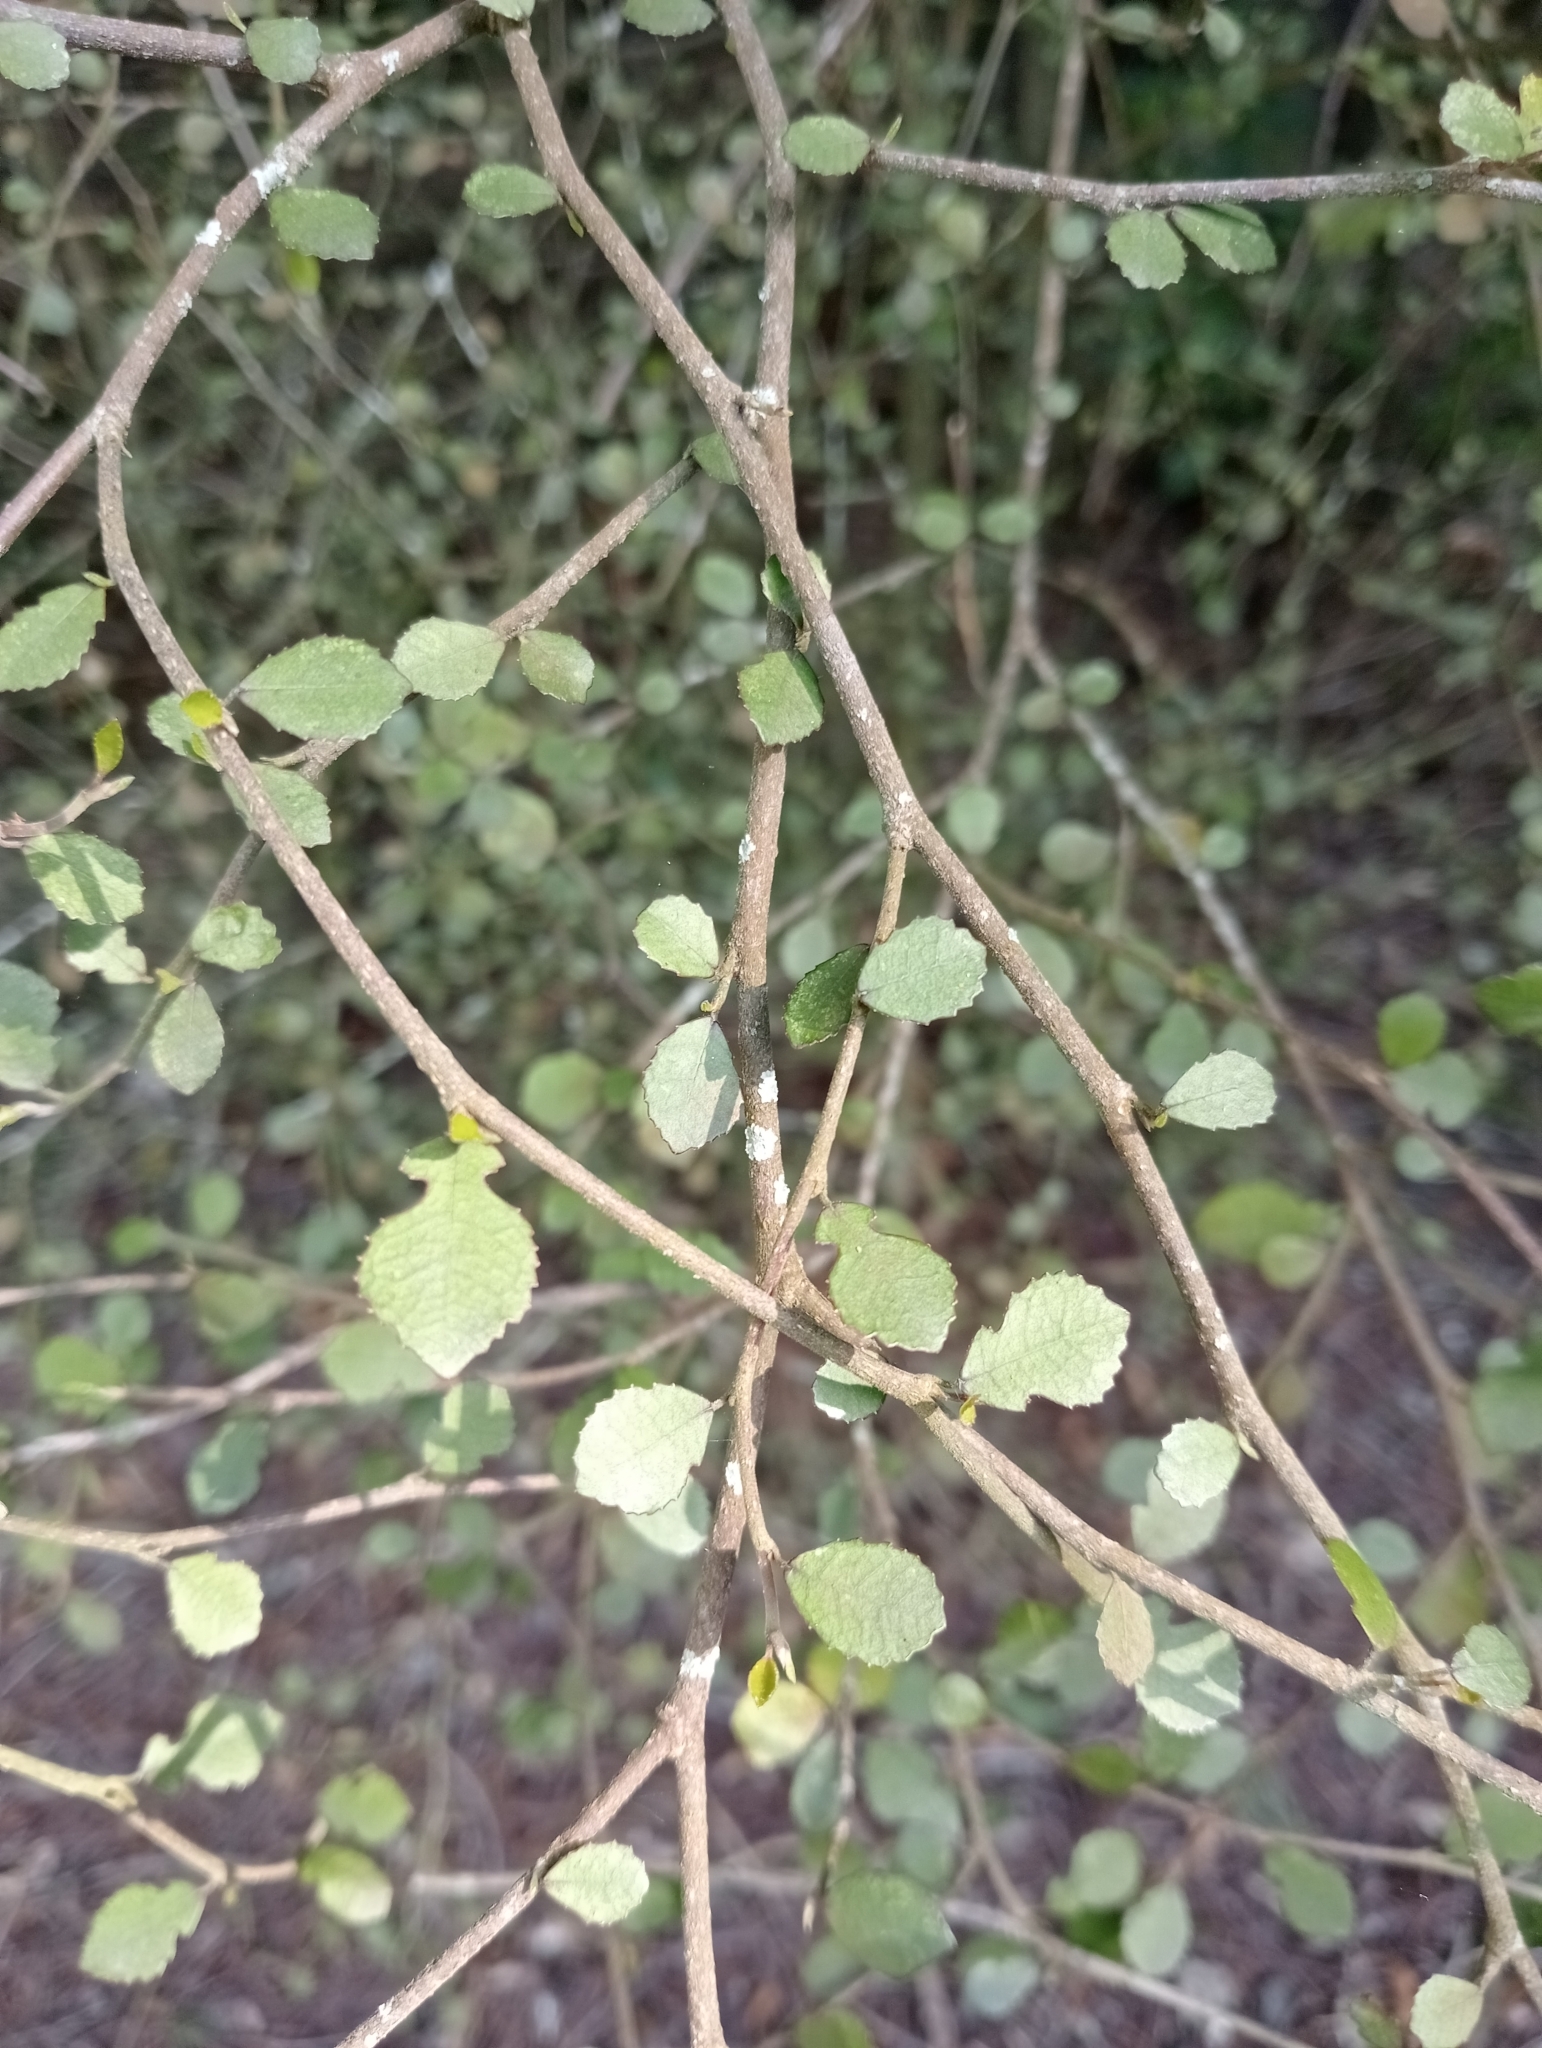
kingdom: Plantae
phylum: Tracheophyta
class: Magnoliopsida
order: Rosales
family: Moraceae
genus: Paratrophis
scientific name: Paratrophis microphylla
